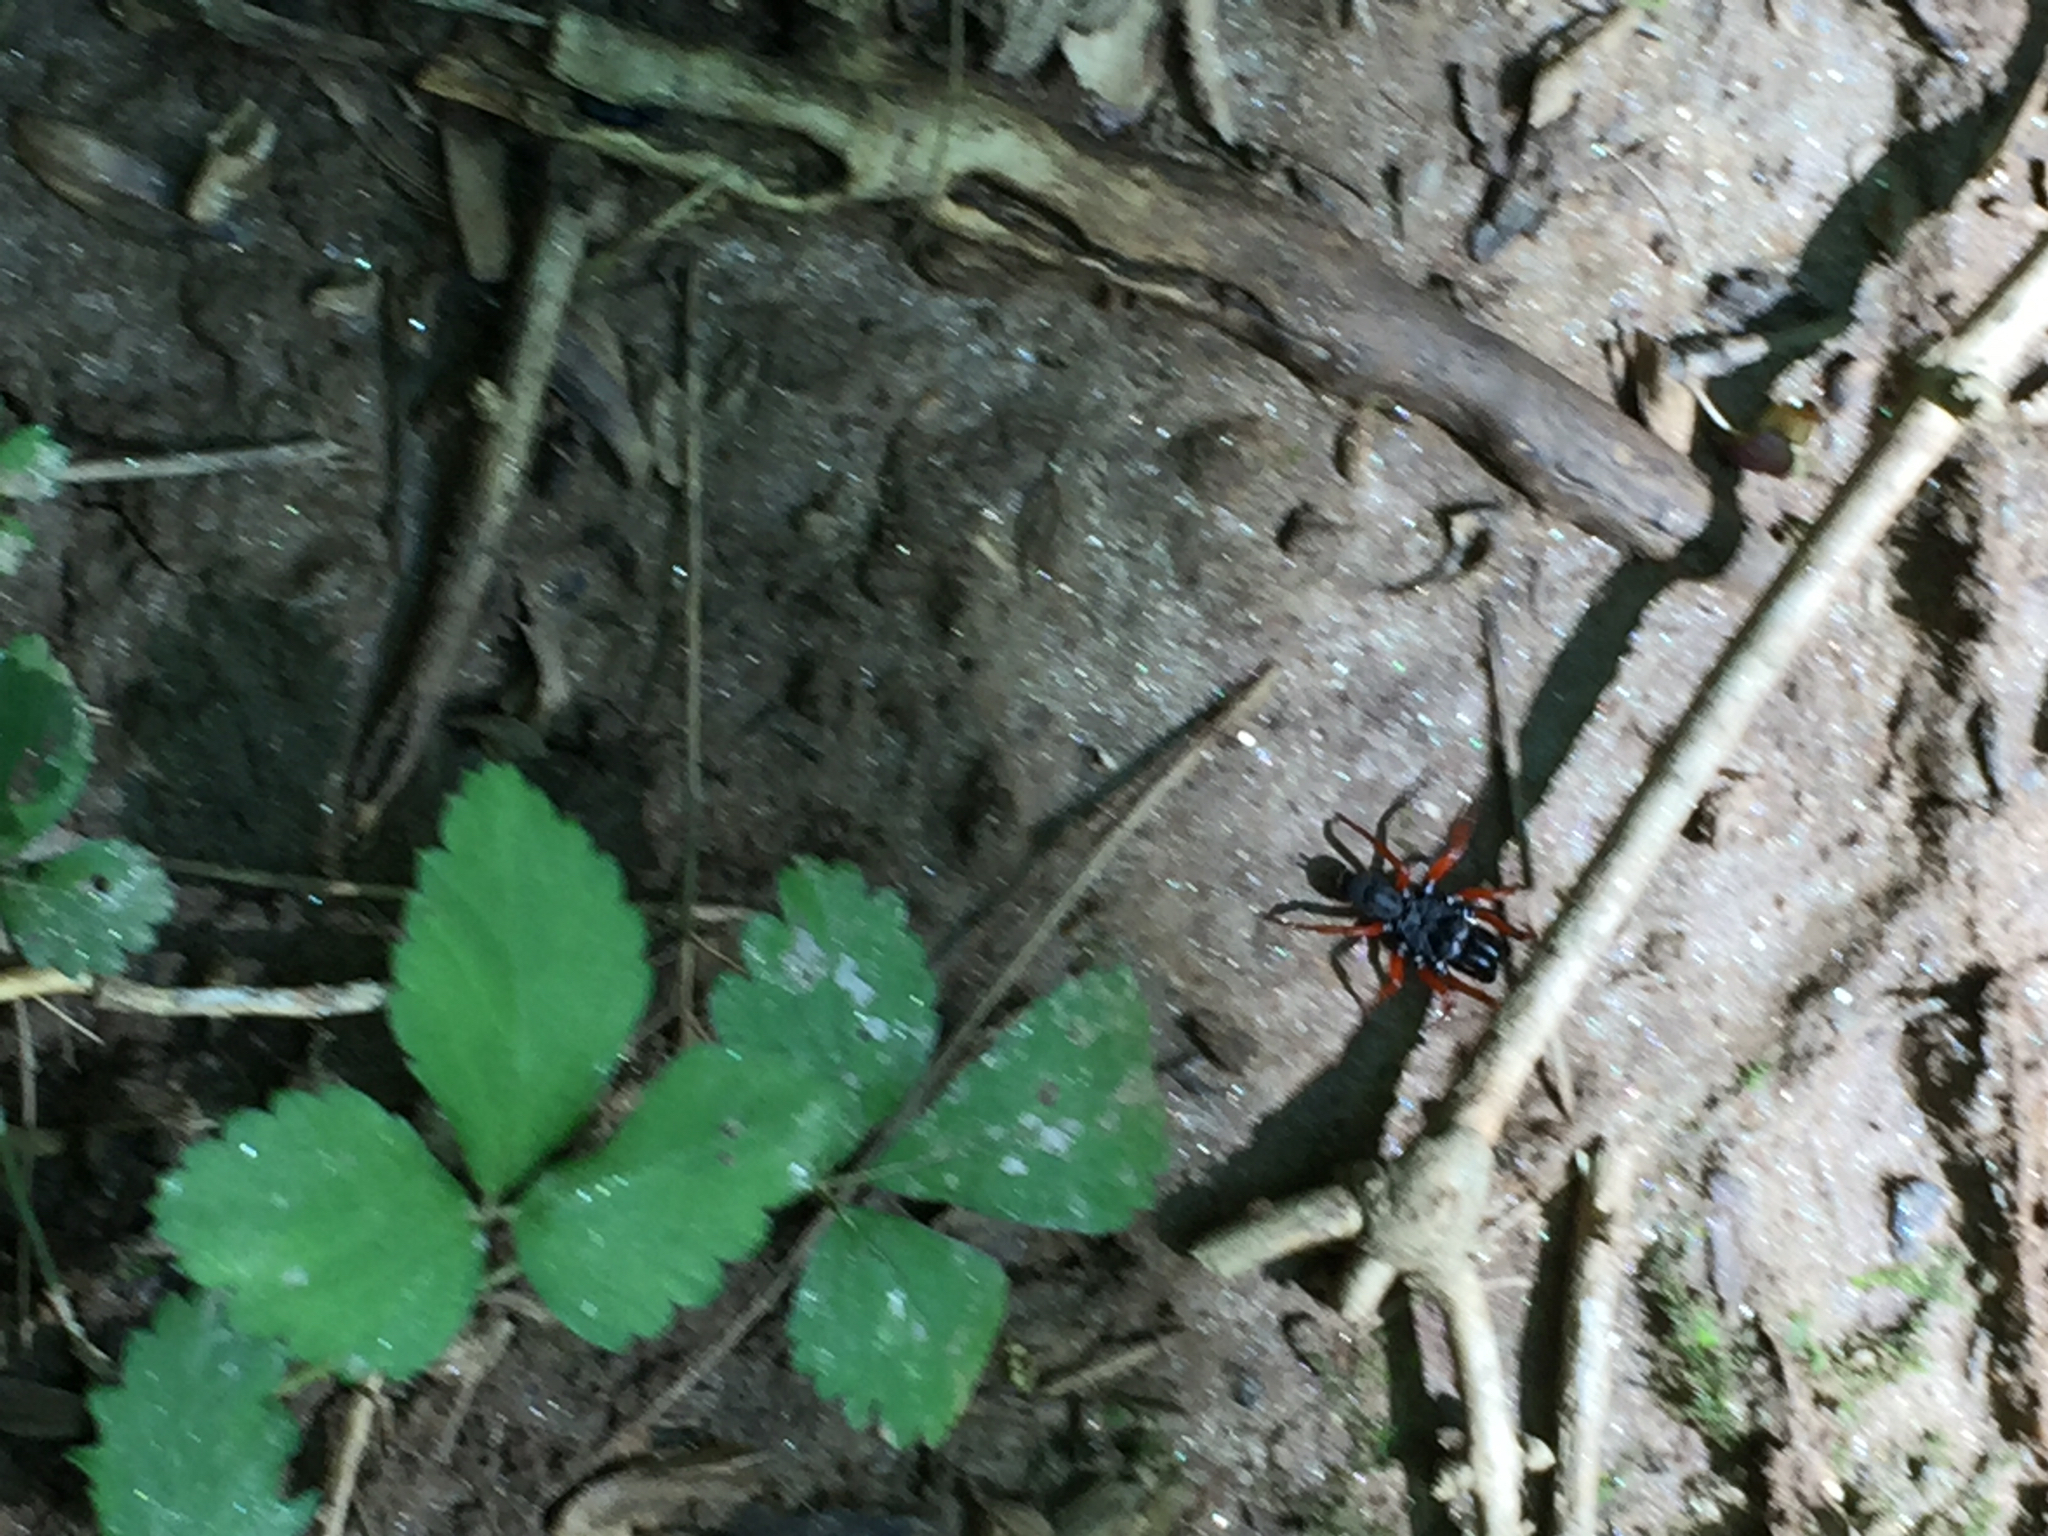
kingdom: Animalia
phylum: Arthropoda
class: Arachnida
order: Araneae
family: Atypidae
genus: Sphodros
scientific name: Sphodros rufipes
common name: Red-legged purseweb spider
